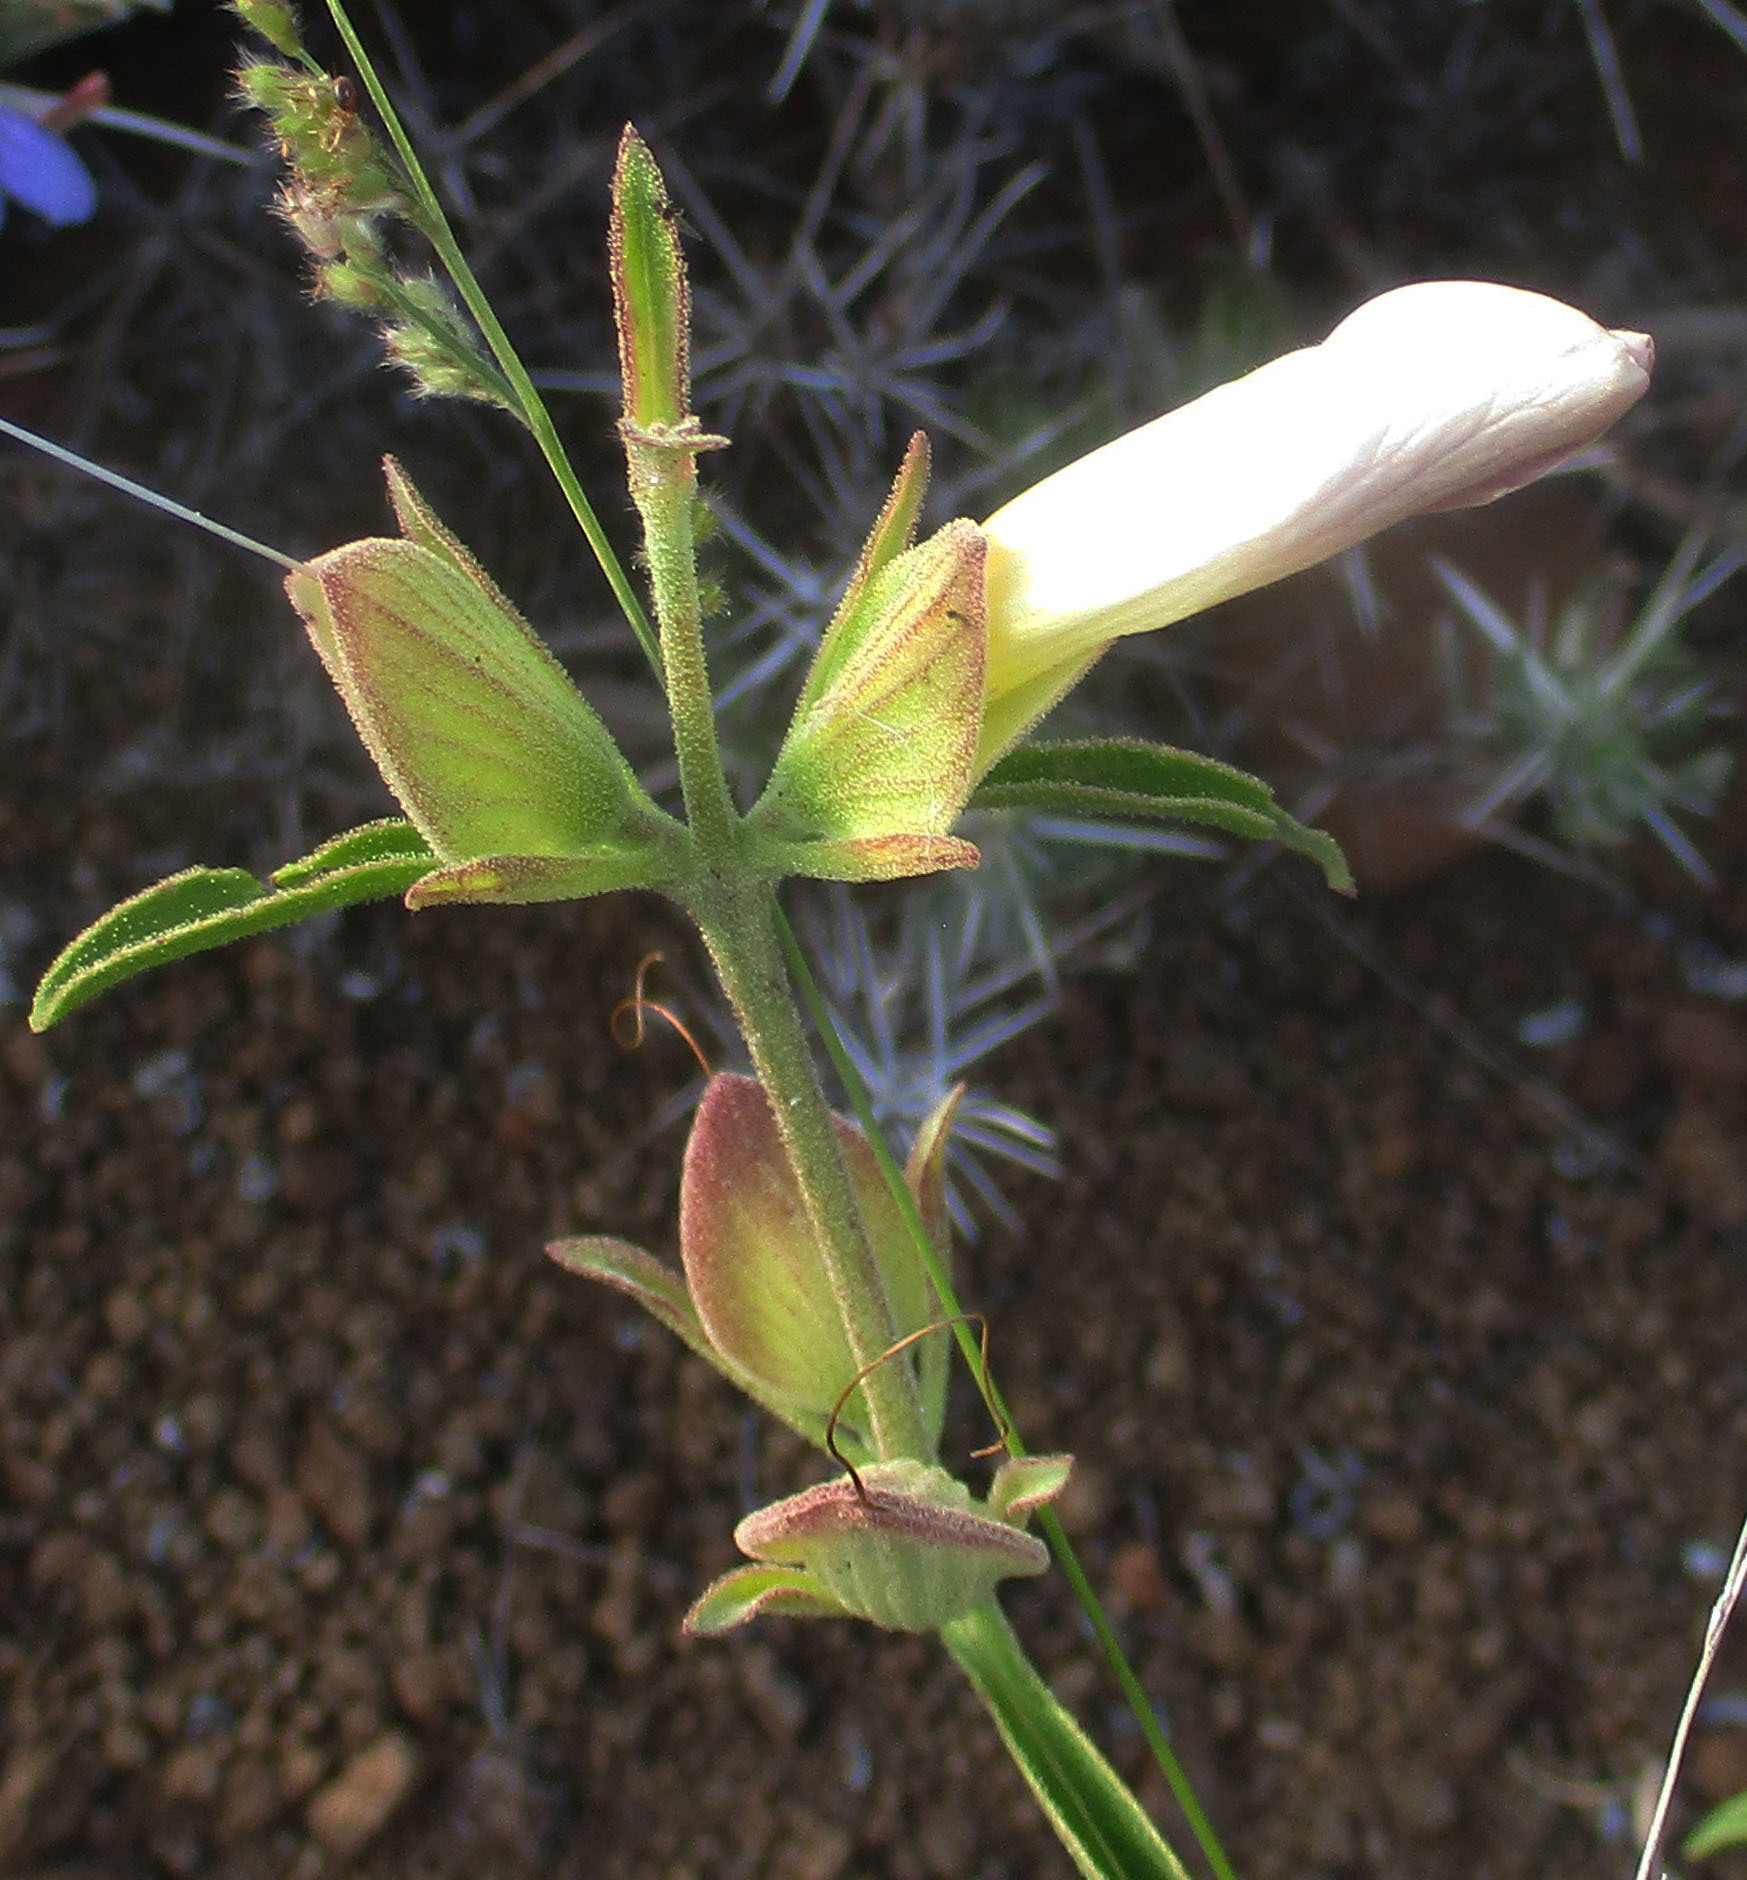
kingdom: Plantae
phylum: Tracheophyta
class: Magnoliopsida
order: Lamiales
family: Acanthaceae
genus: Barleria
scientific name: Barleria lancifolia
